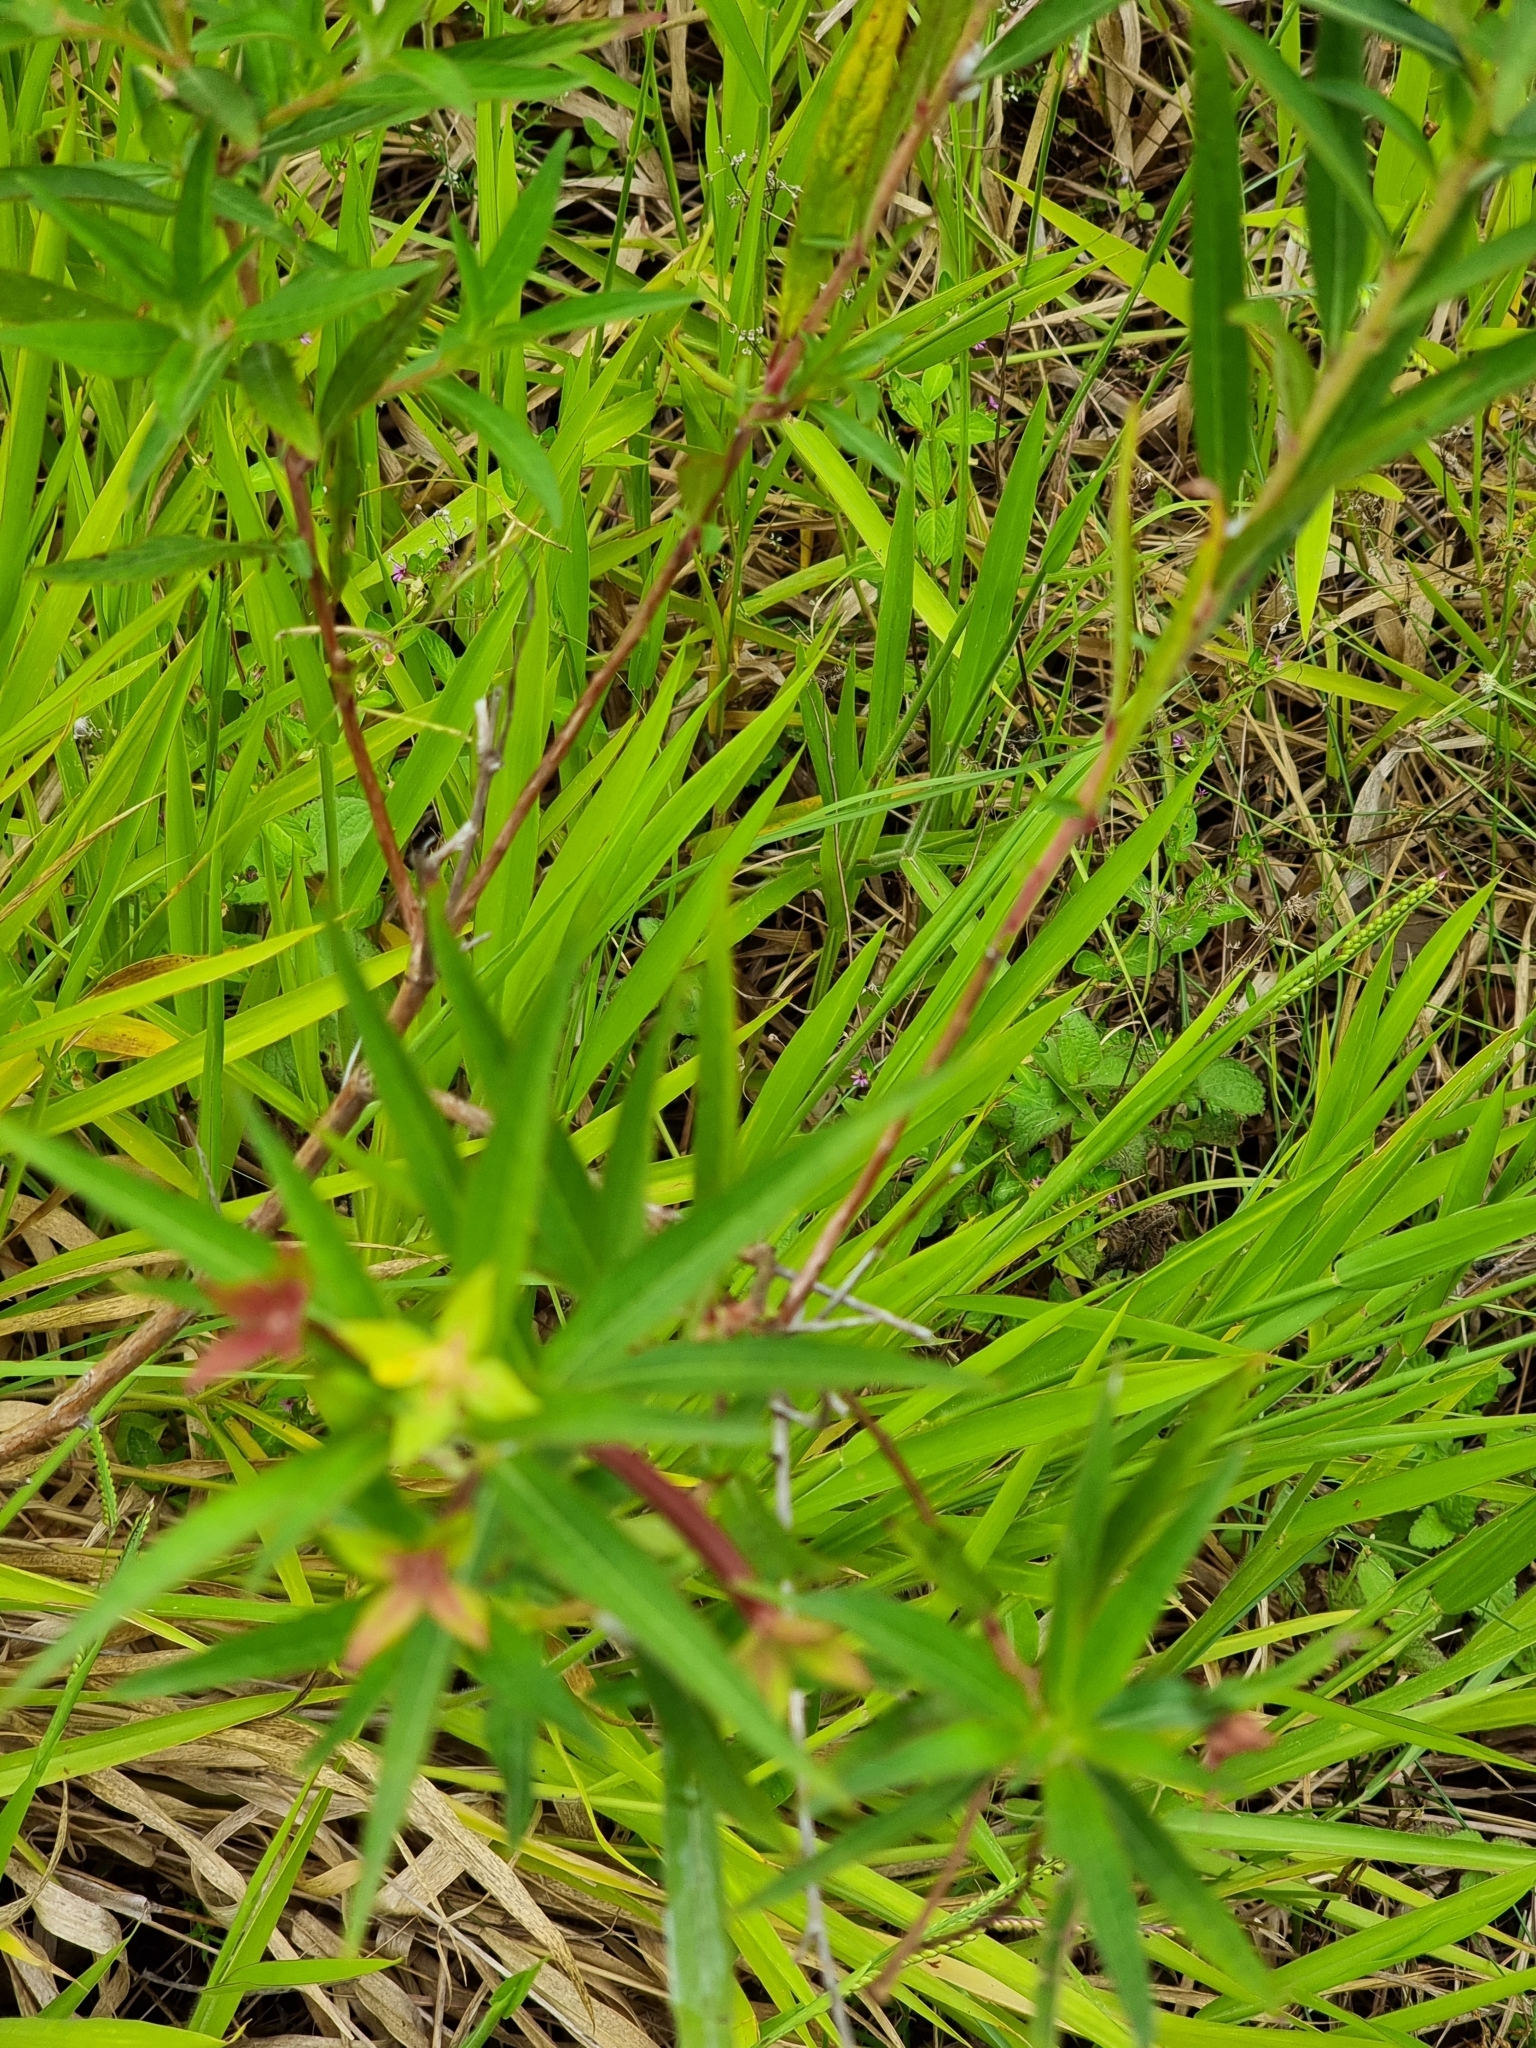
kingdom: Plantae
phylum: Tracheophyta
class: Magnoliopsida
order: Myrtales
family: Onagraceae
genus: Ludwigia
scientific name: Ludwigia octovalvis
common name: Water-primrose
